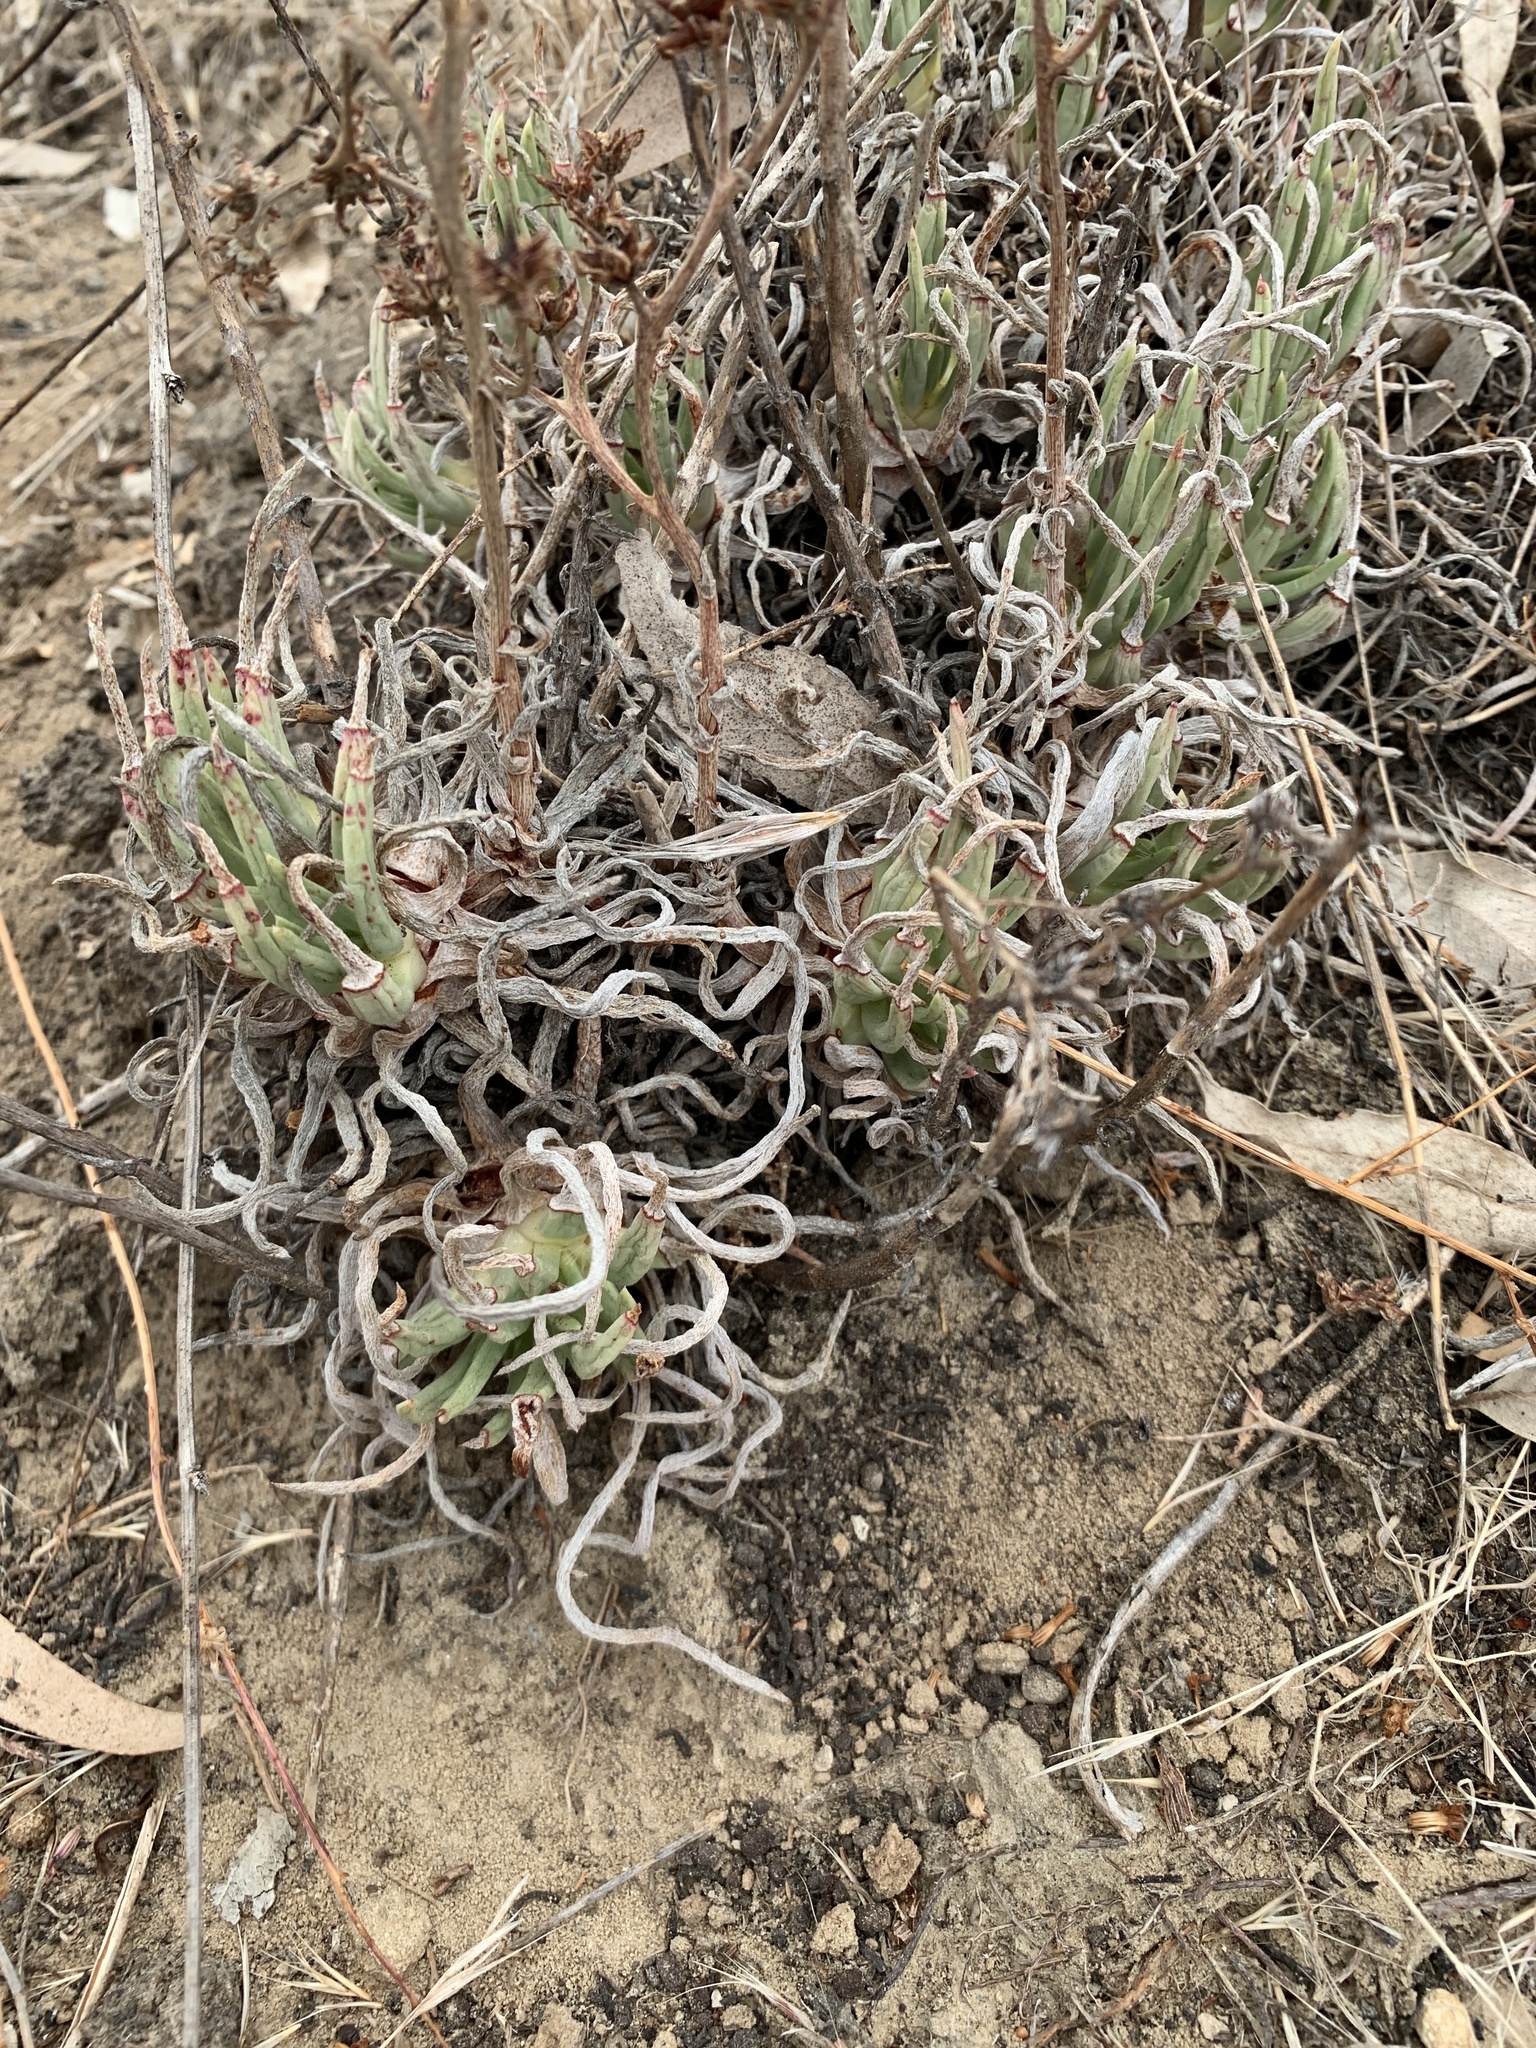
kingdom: Plantae
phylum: Tracheophyta
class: Magnoliopsida
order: Saxifragales
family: Crassulaceae
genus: Dudleya
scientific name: Dudleya edulis
